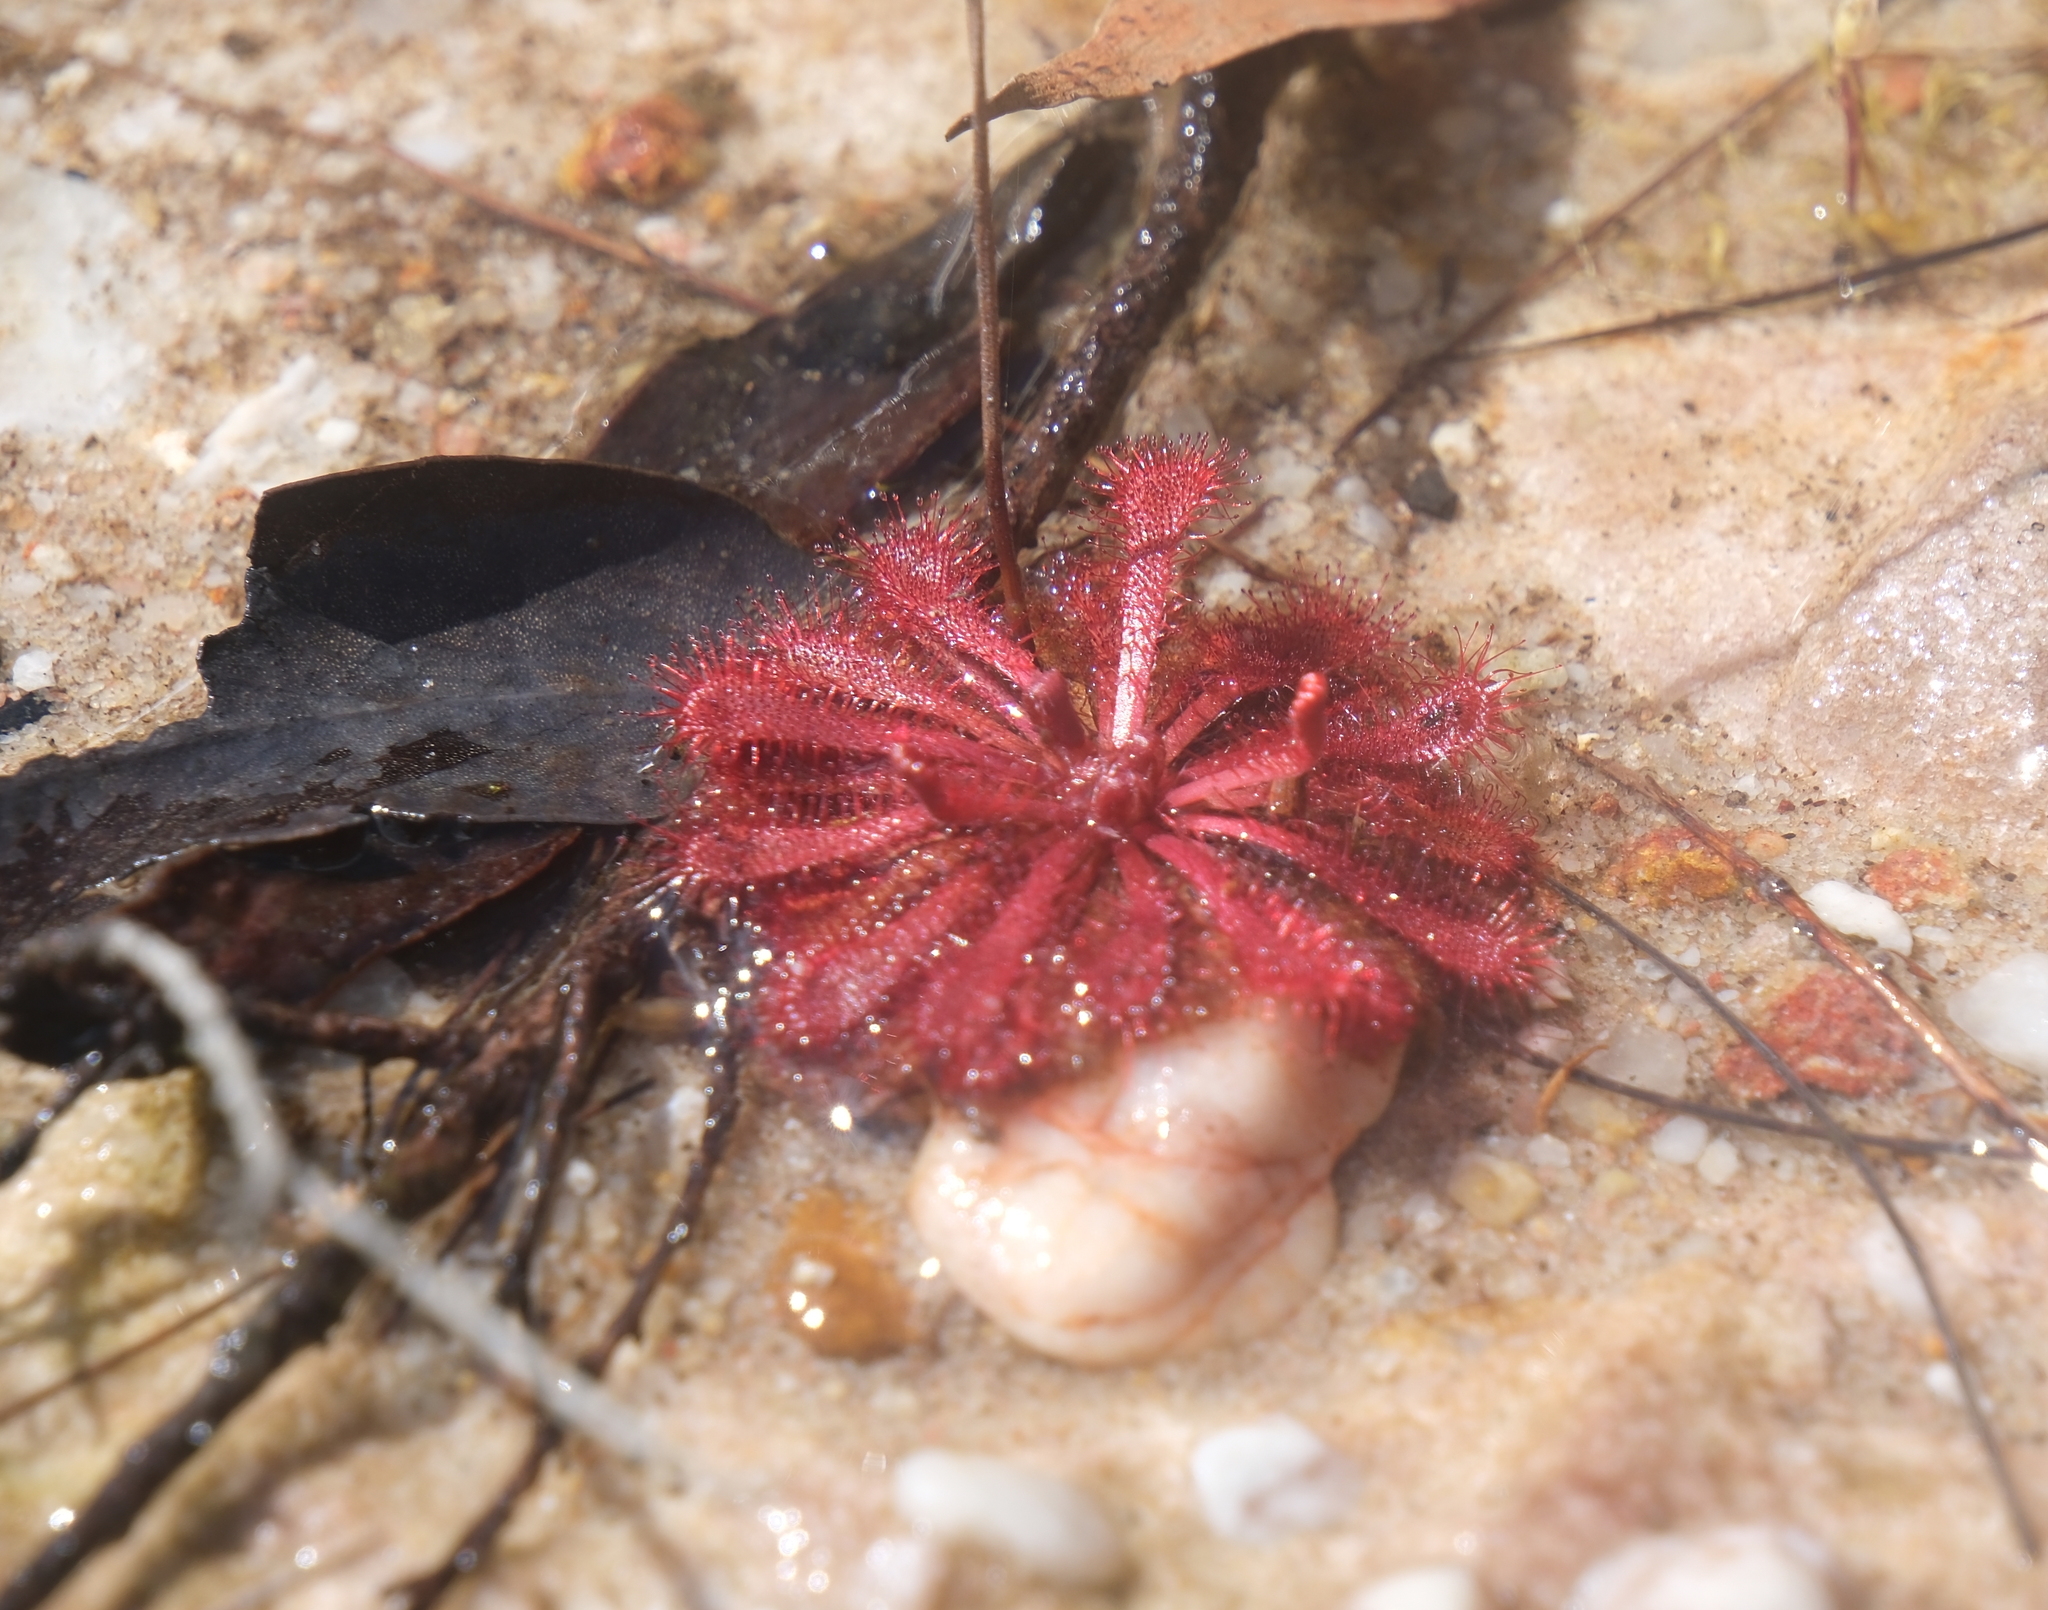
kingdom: Plantae
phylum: Tracheophyta
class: Magnoliopsida
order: Caryophyllales
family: Droseraceae
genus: Drosera
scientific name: Drosera spatulata
